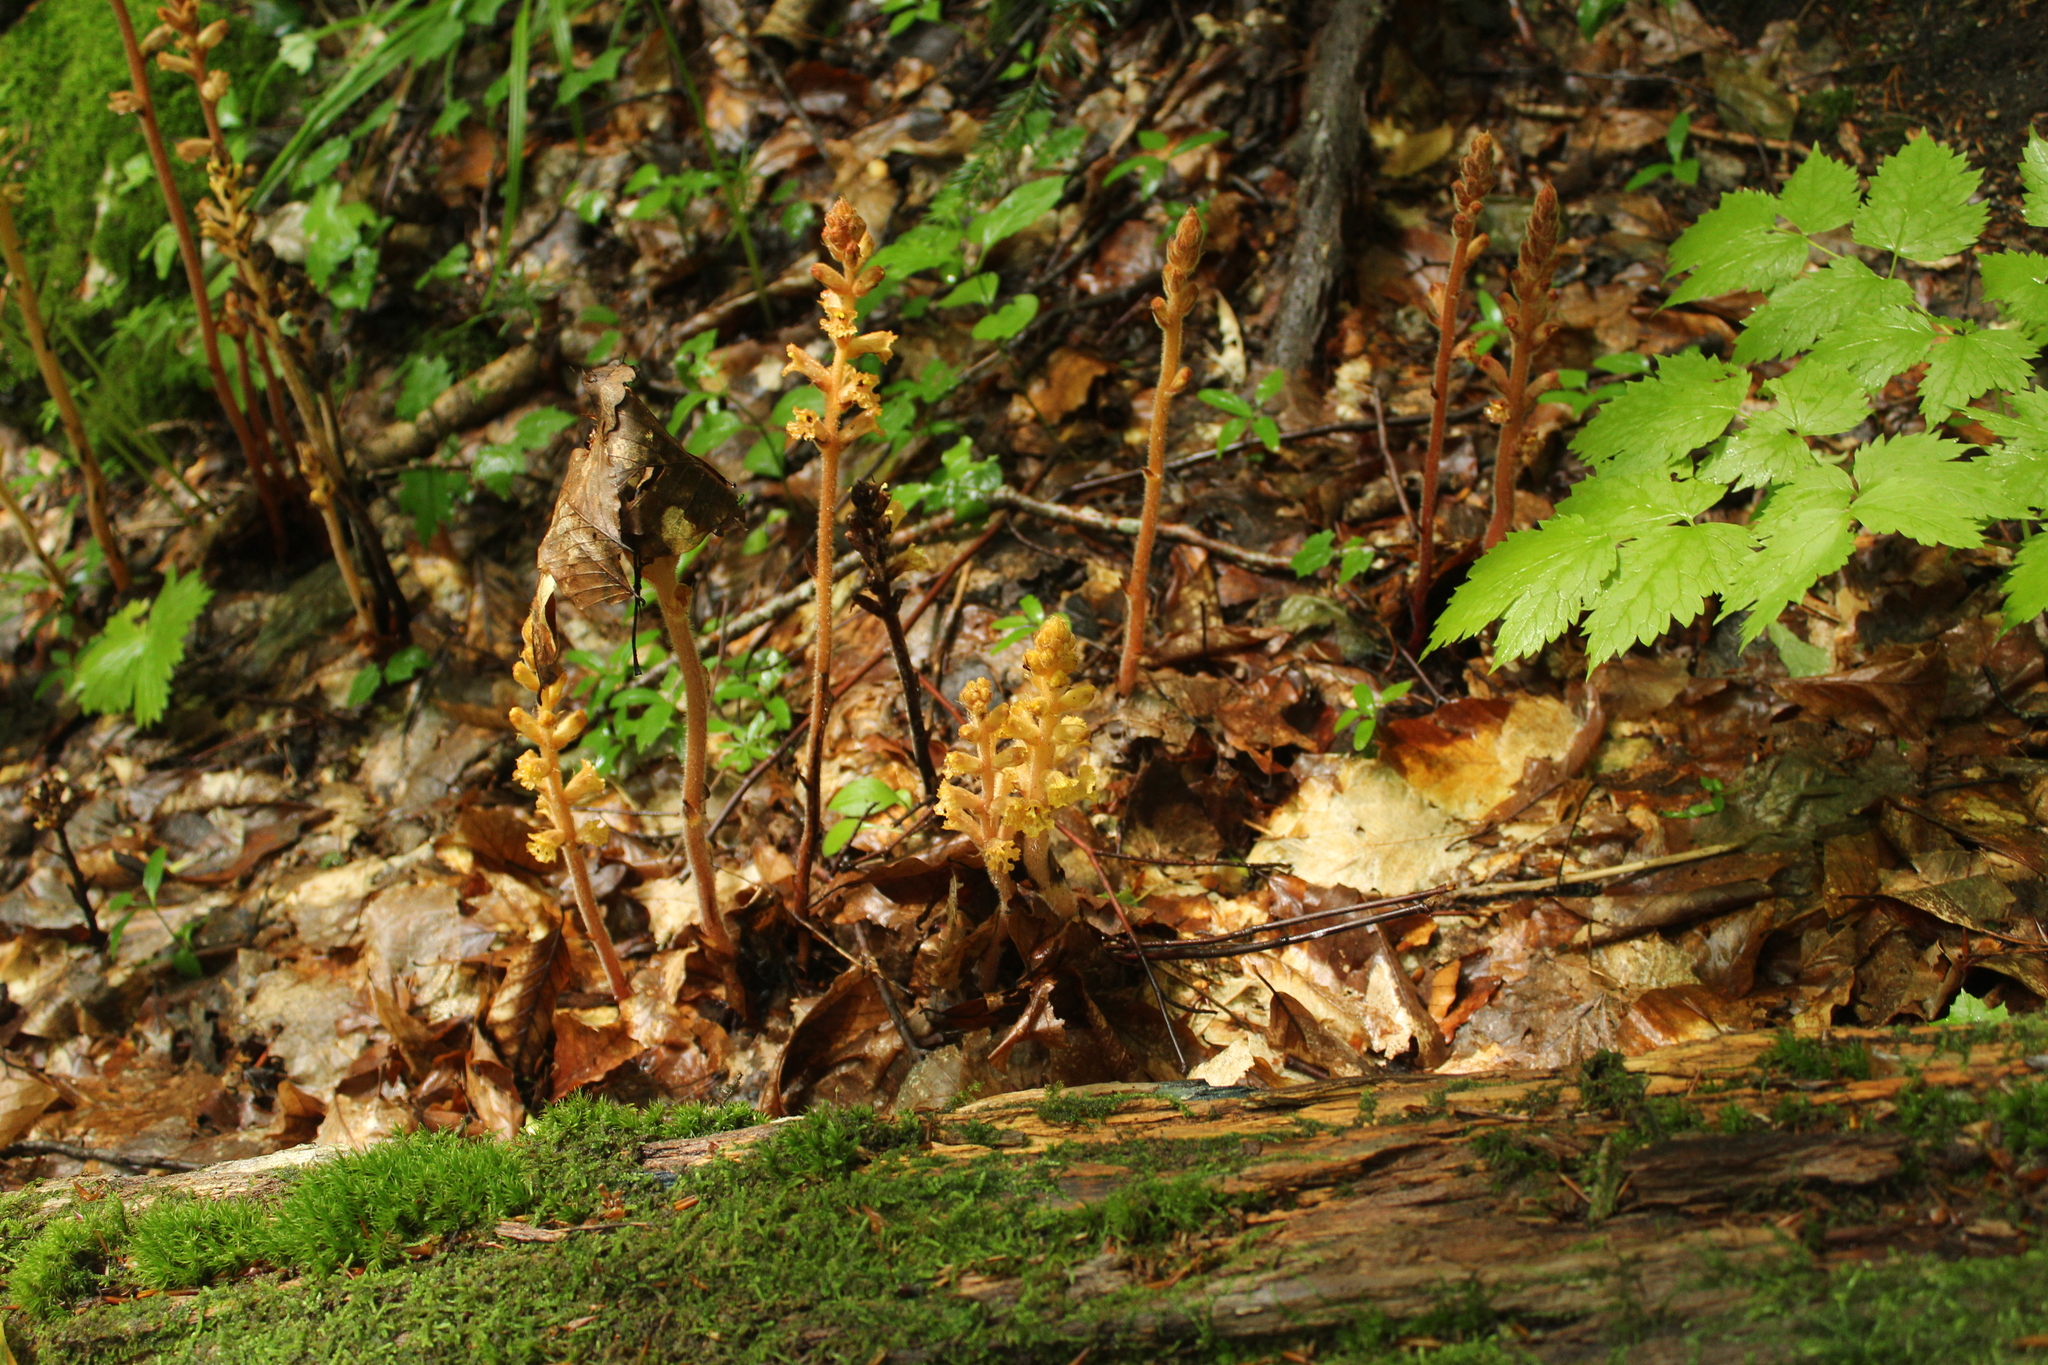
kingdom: Plantae
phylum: Tracheophyta
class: Magnoliopsida
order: Lamiales
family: Orobanchaceae
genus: Orobanche
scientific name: Orobanche laxissima
